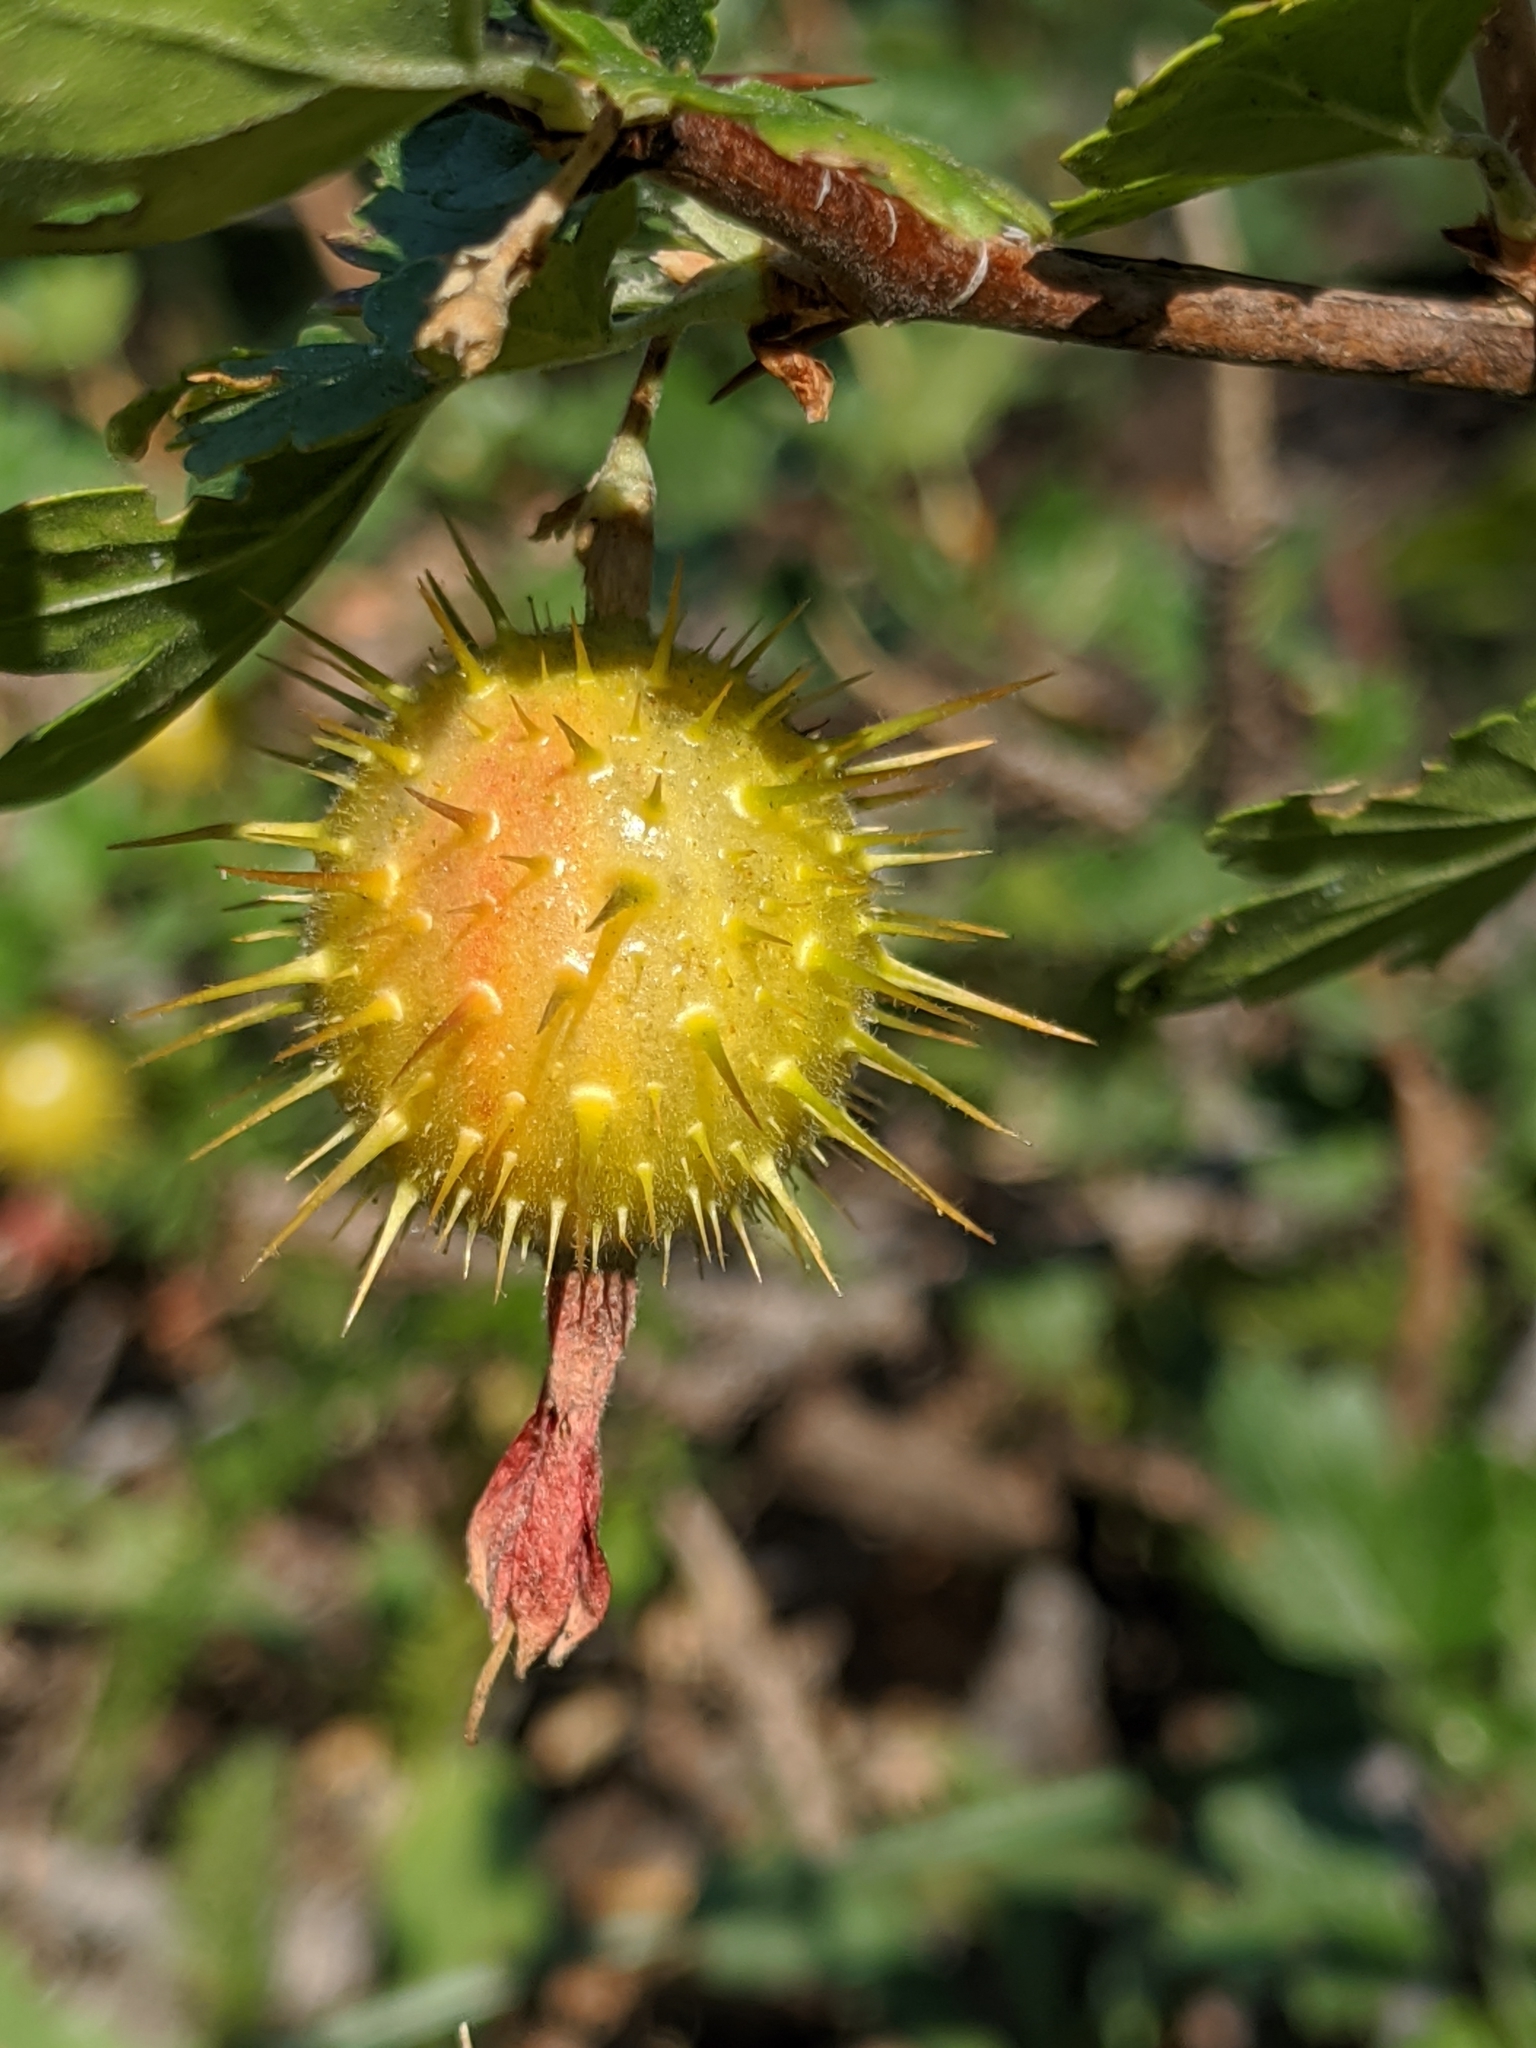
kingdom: Plantae
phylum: Tracheophyta
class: Magnoliopsida
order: Saxifragales
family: Grossulariaceae
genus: Ribes
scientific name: Ribes roezlii
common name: Sierra gooseberry
